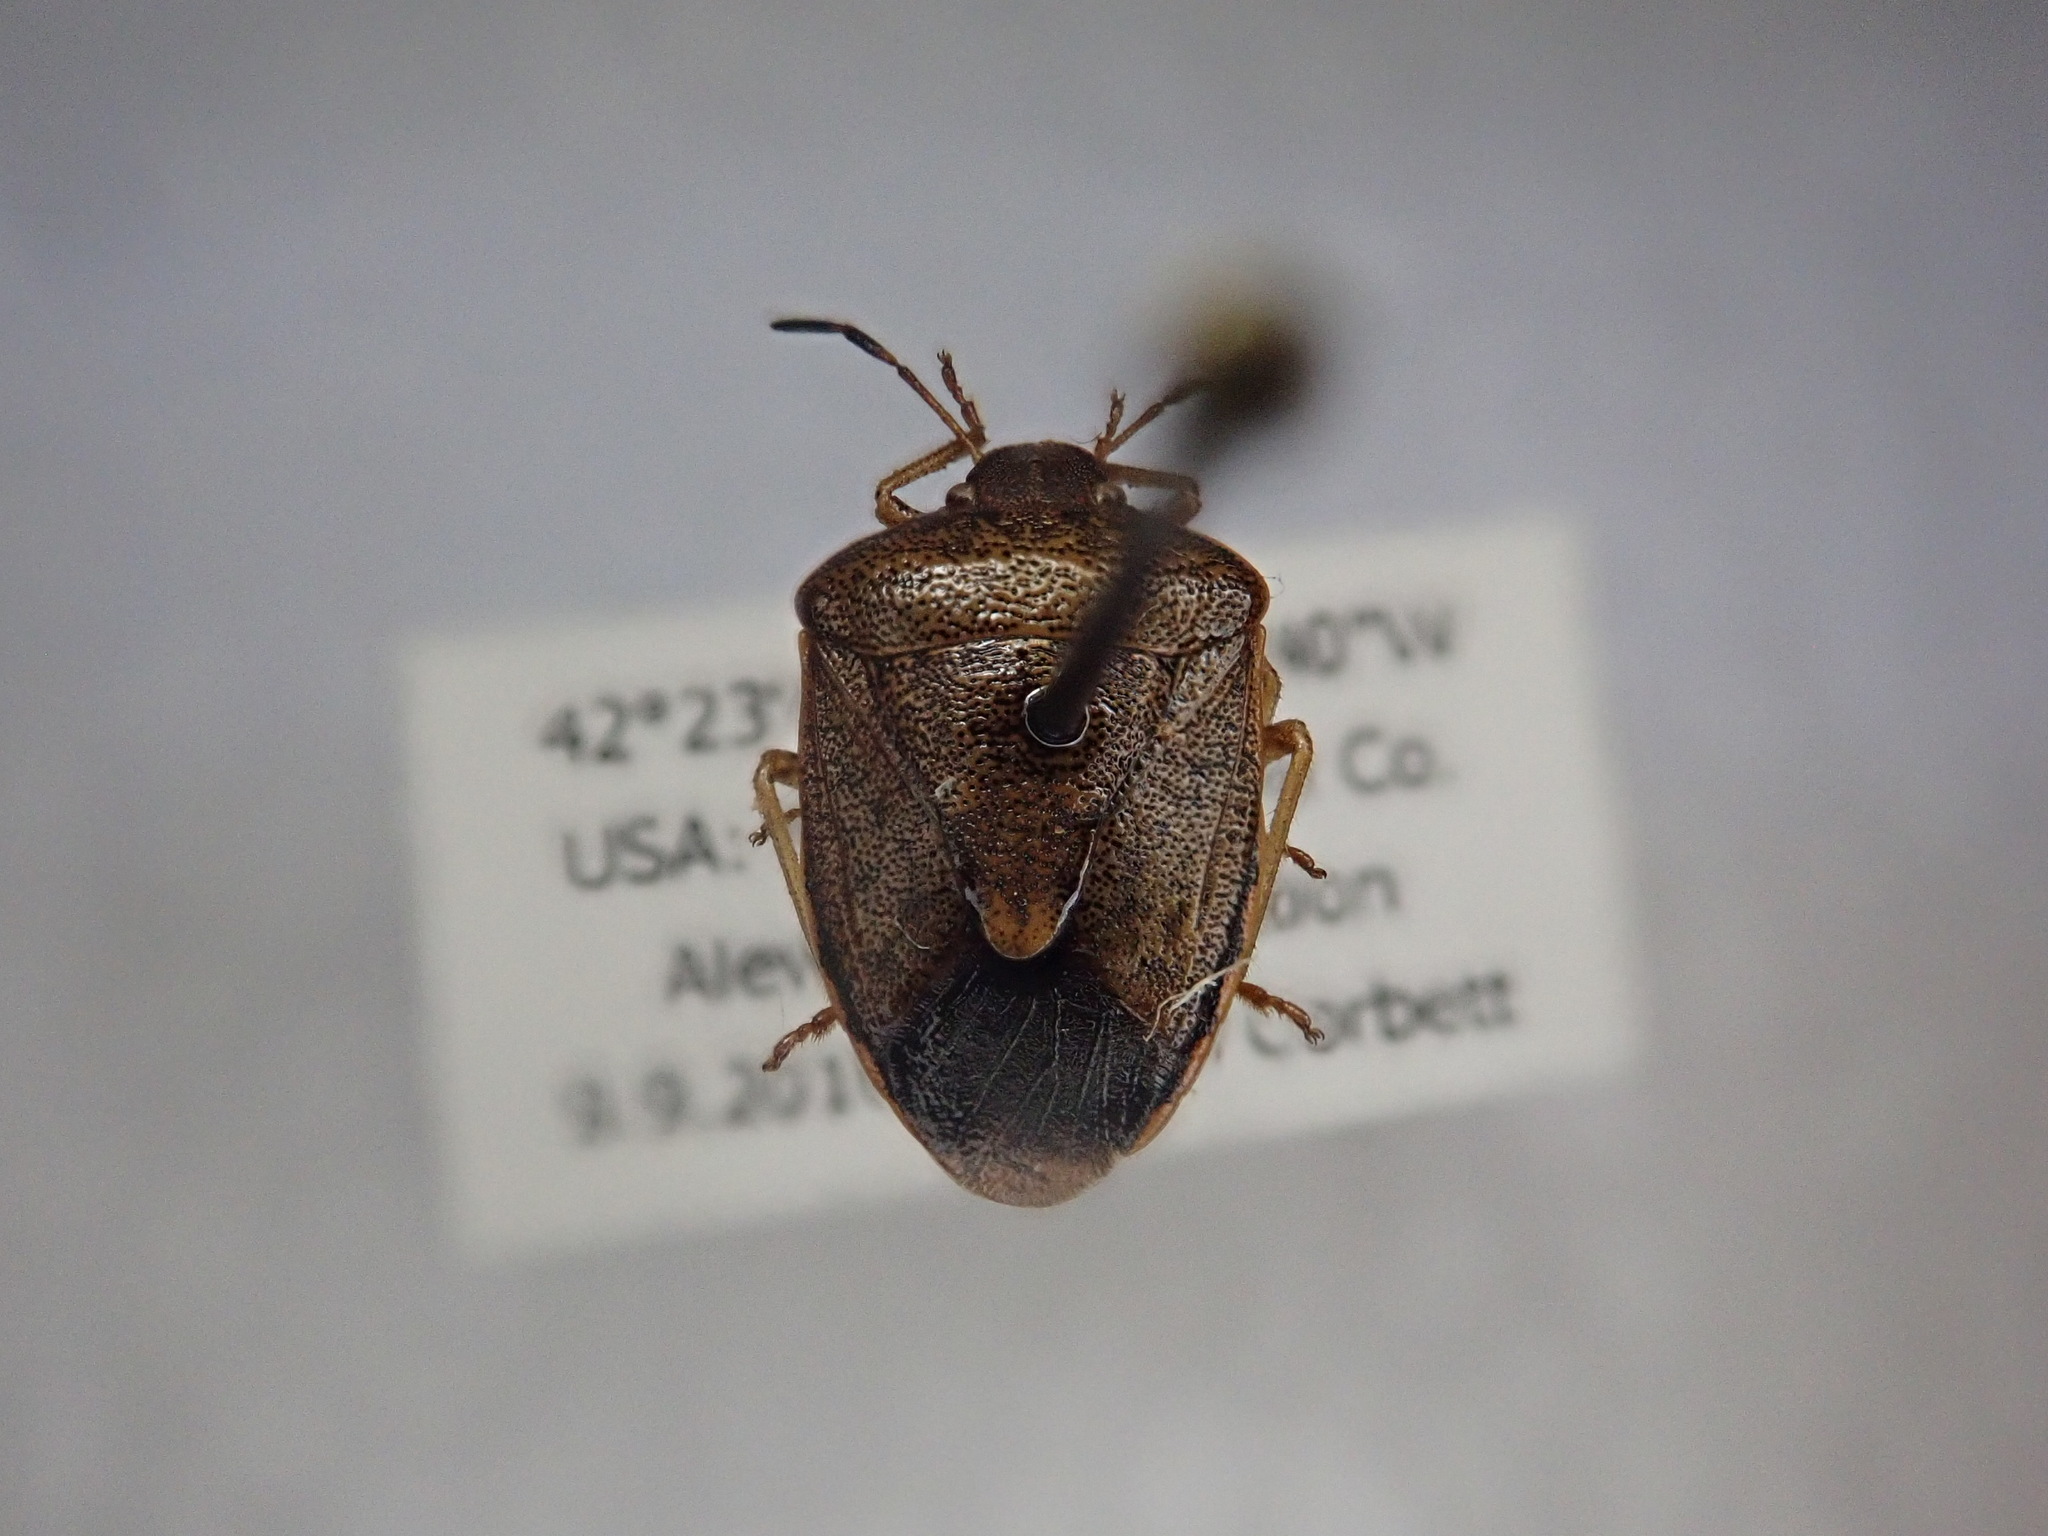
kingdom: Animalia
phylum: Arthropoda
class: Insecta
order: Hemiptera
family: Pentatomidae
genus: Holcostethus
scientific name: Holcostethus limbolarius
